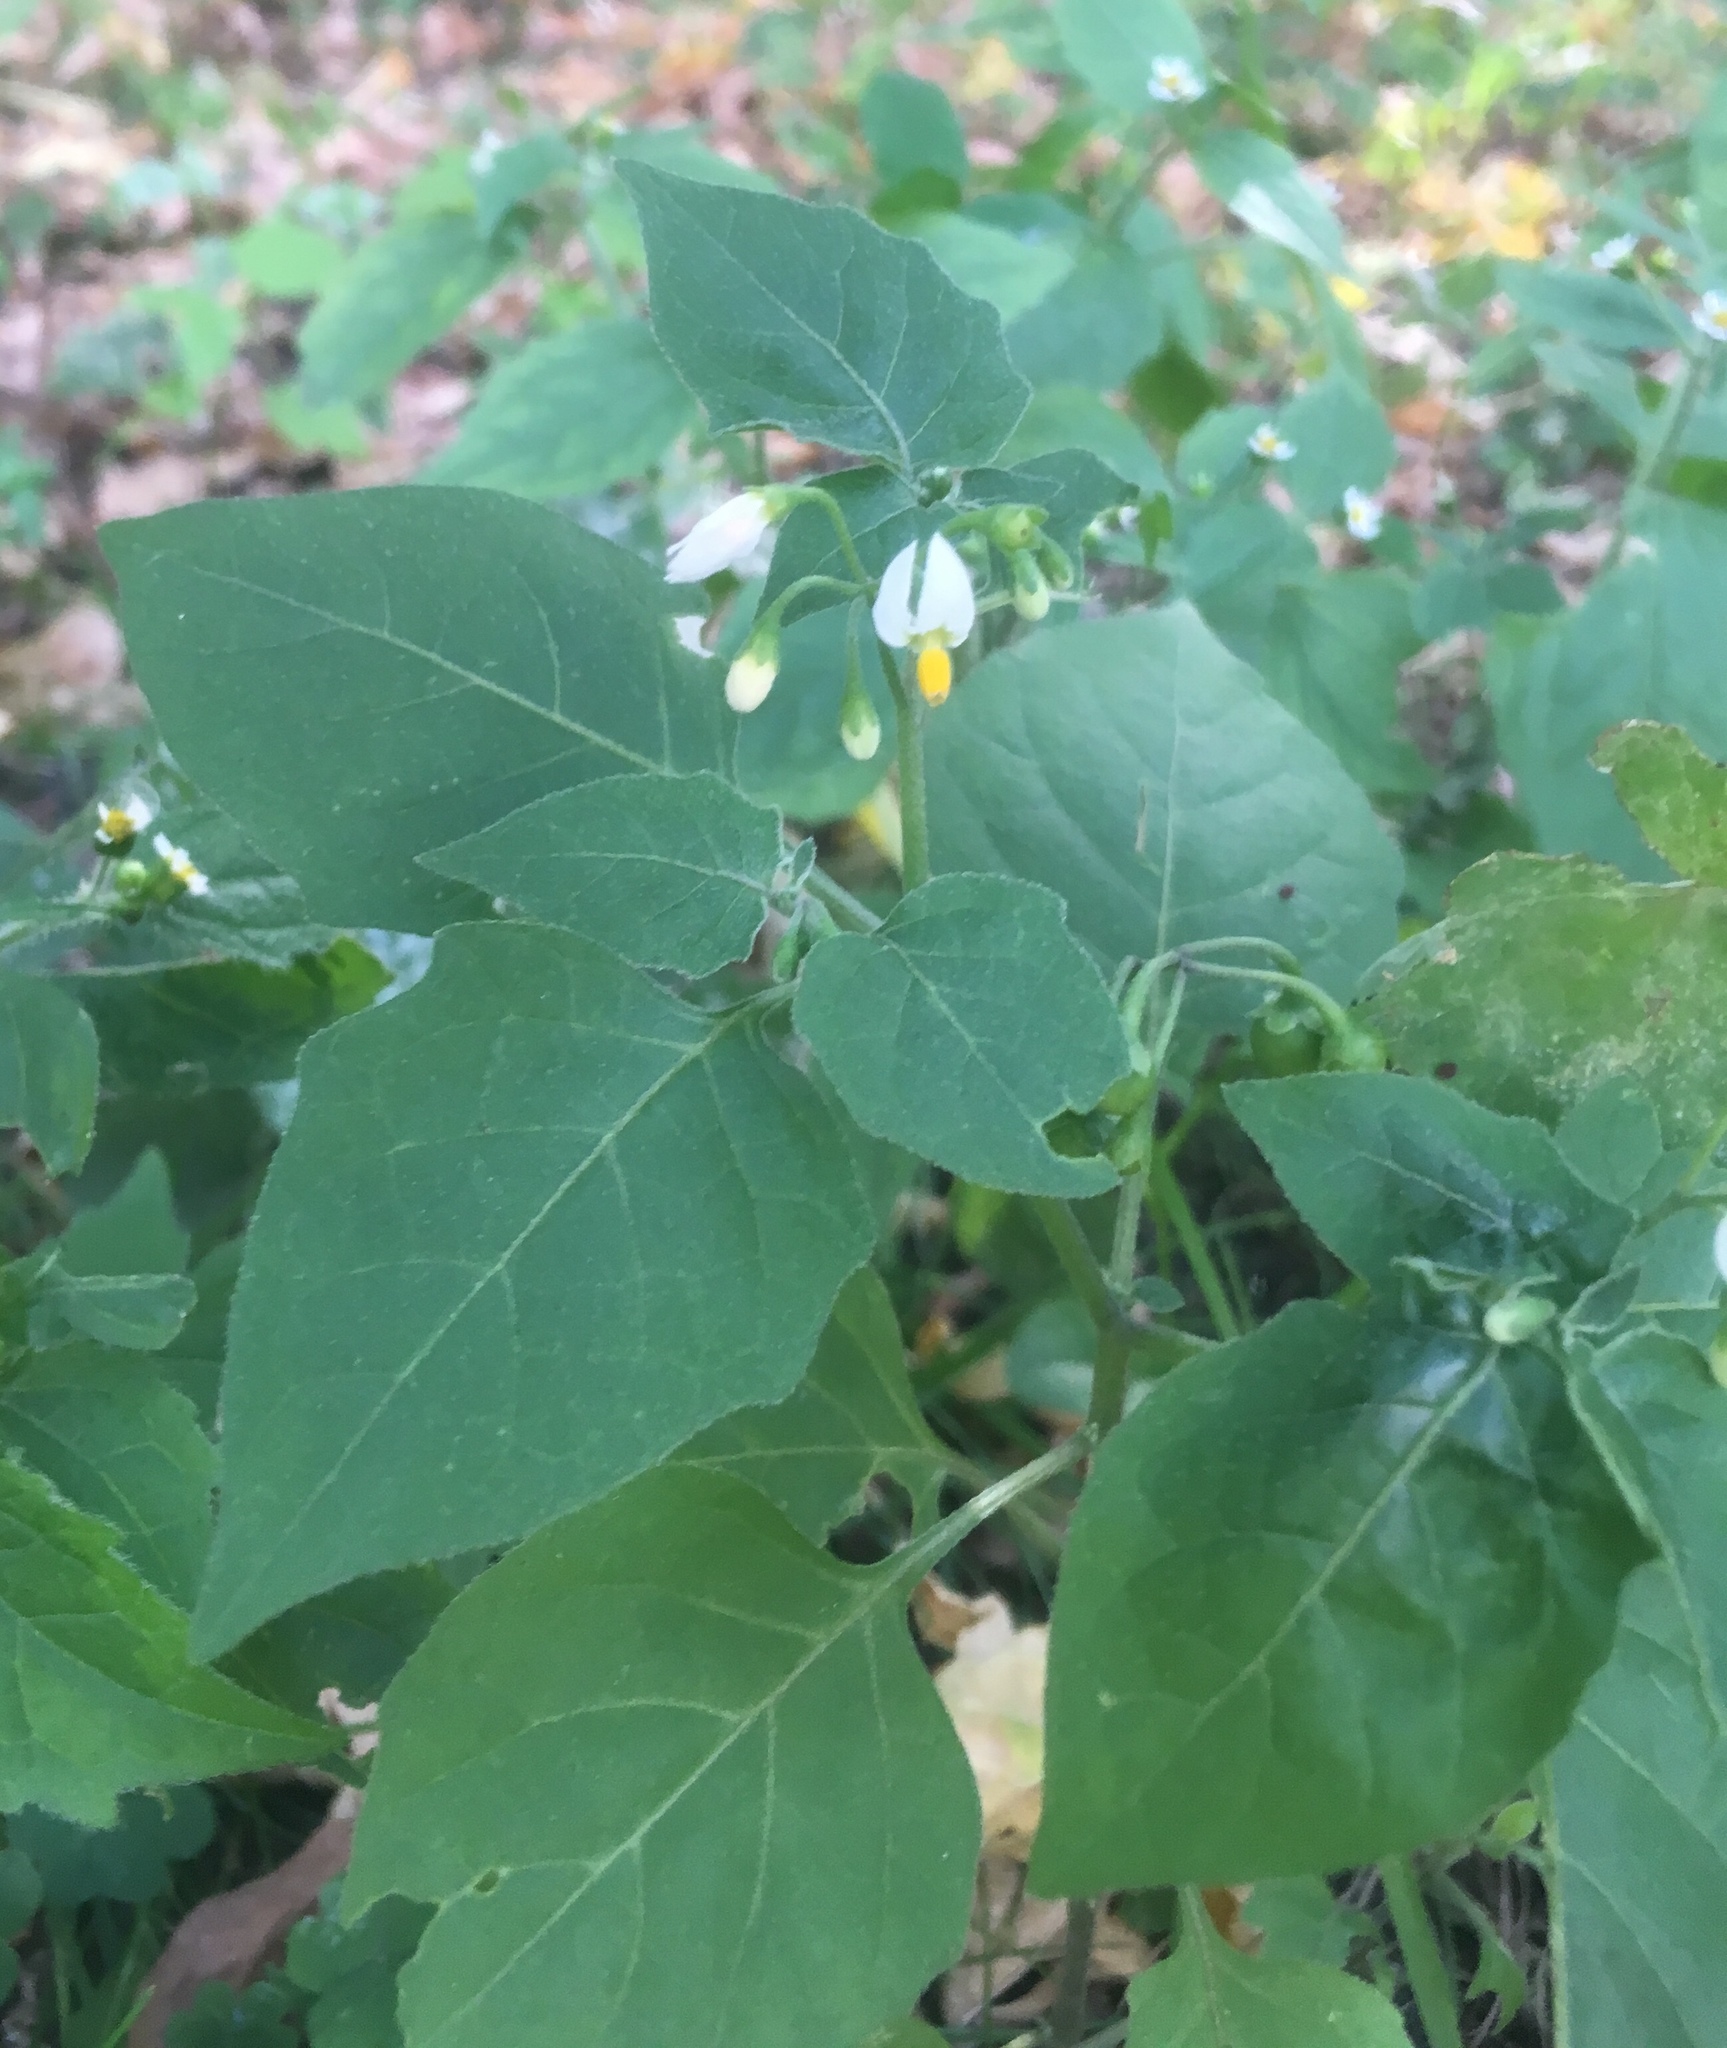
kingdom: Plantae
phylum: Tracheophyta
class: Magnoliopsida
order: Solanales
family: Solanaceae
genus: Solanum
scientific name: Solanum nigrum
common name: Black nightshade
